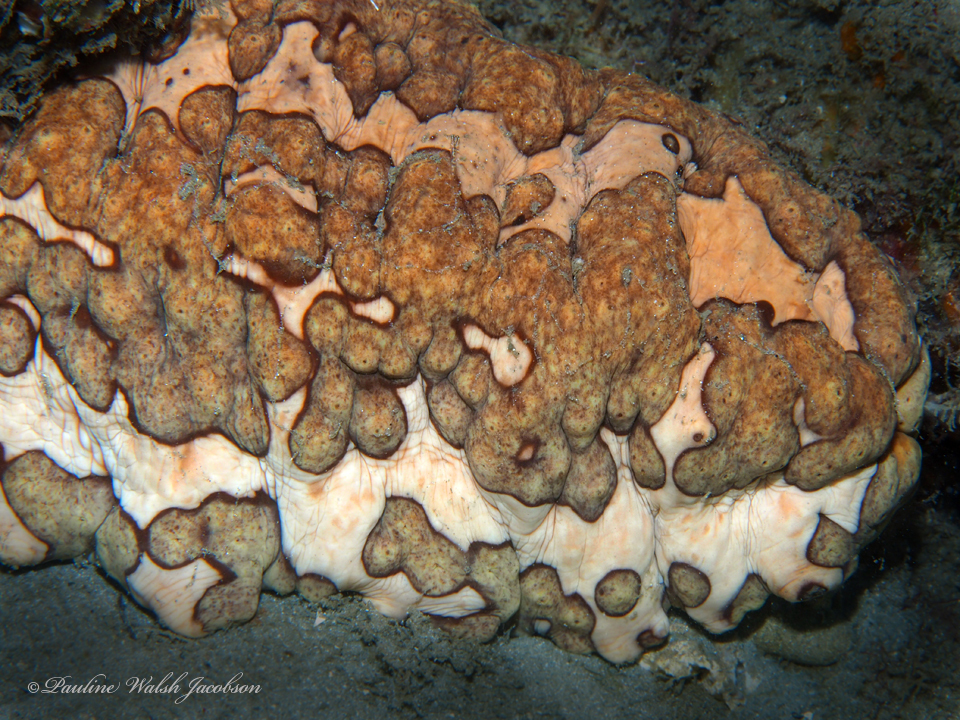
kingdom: Animalia
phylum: Echinodermata
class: Holothuroidea
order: Synallactida
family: Stichopodidae
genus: Isostichopus
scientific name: Isostichopus badionotus
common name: Chocolate chip cucumber
